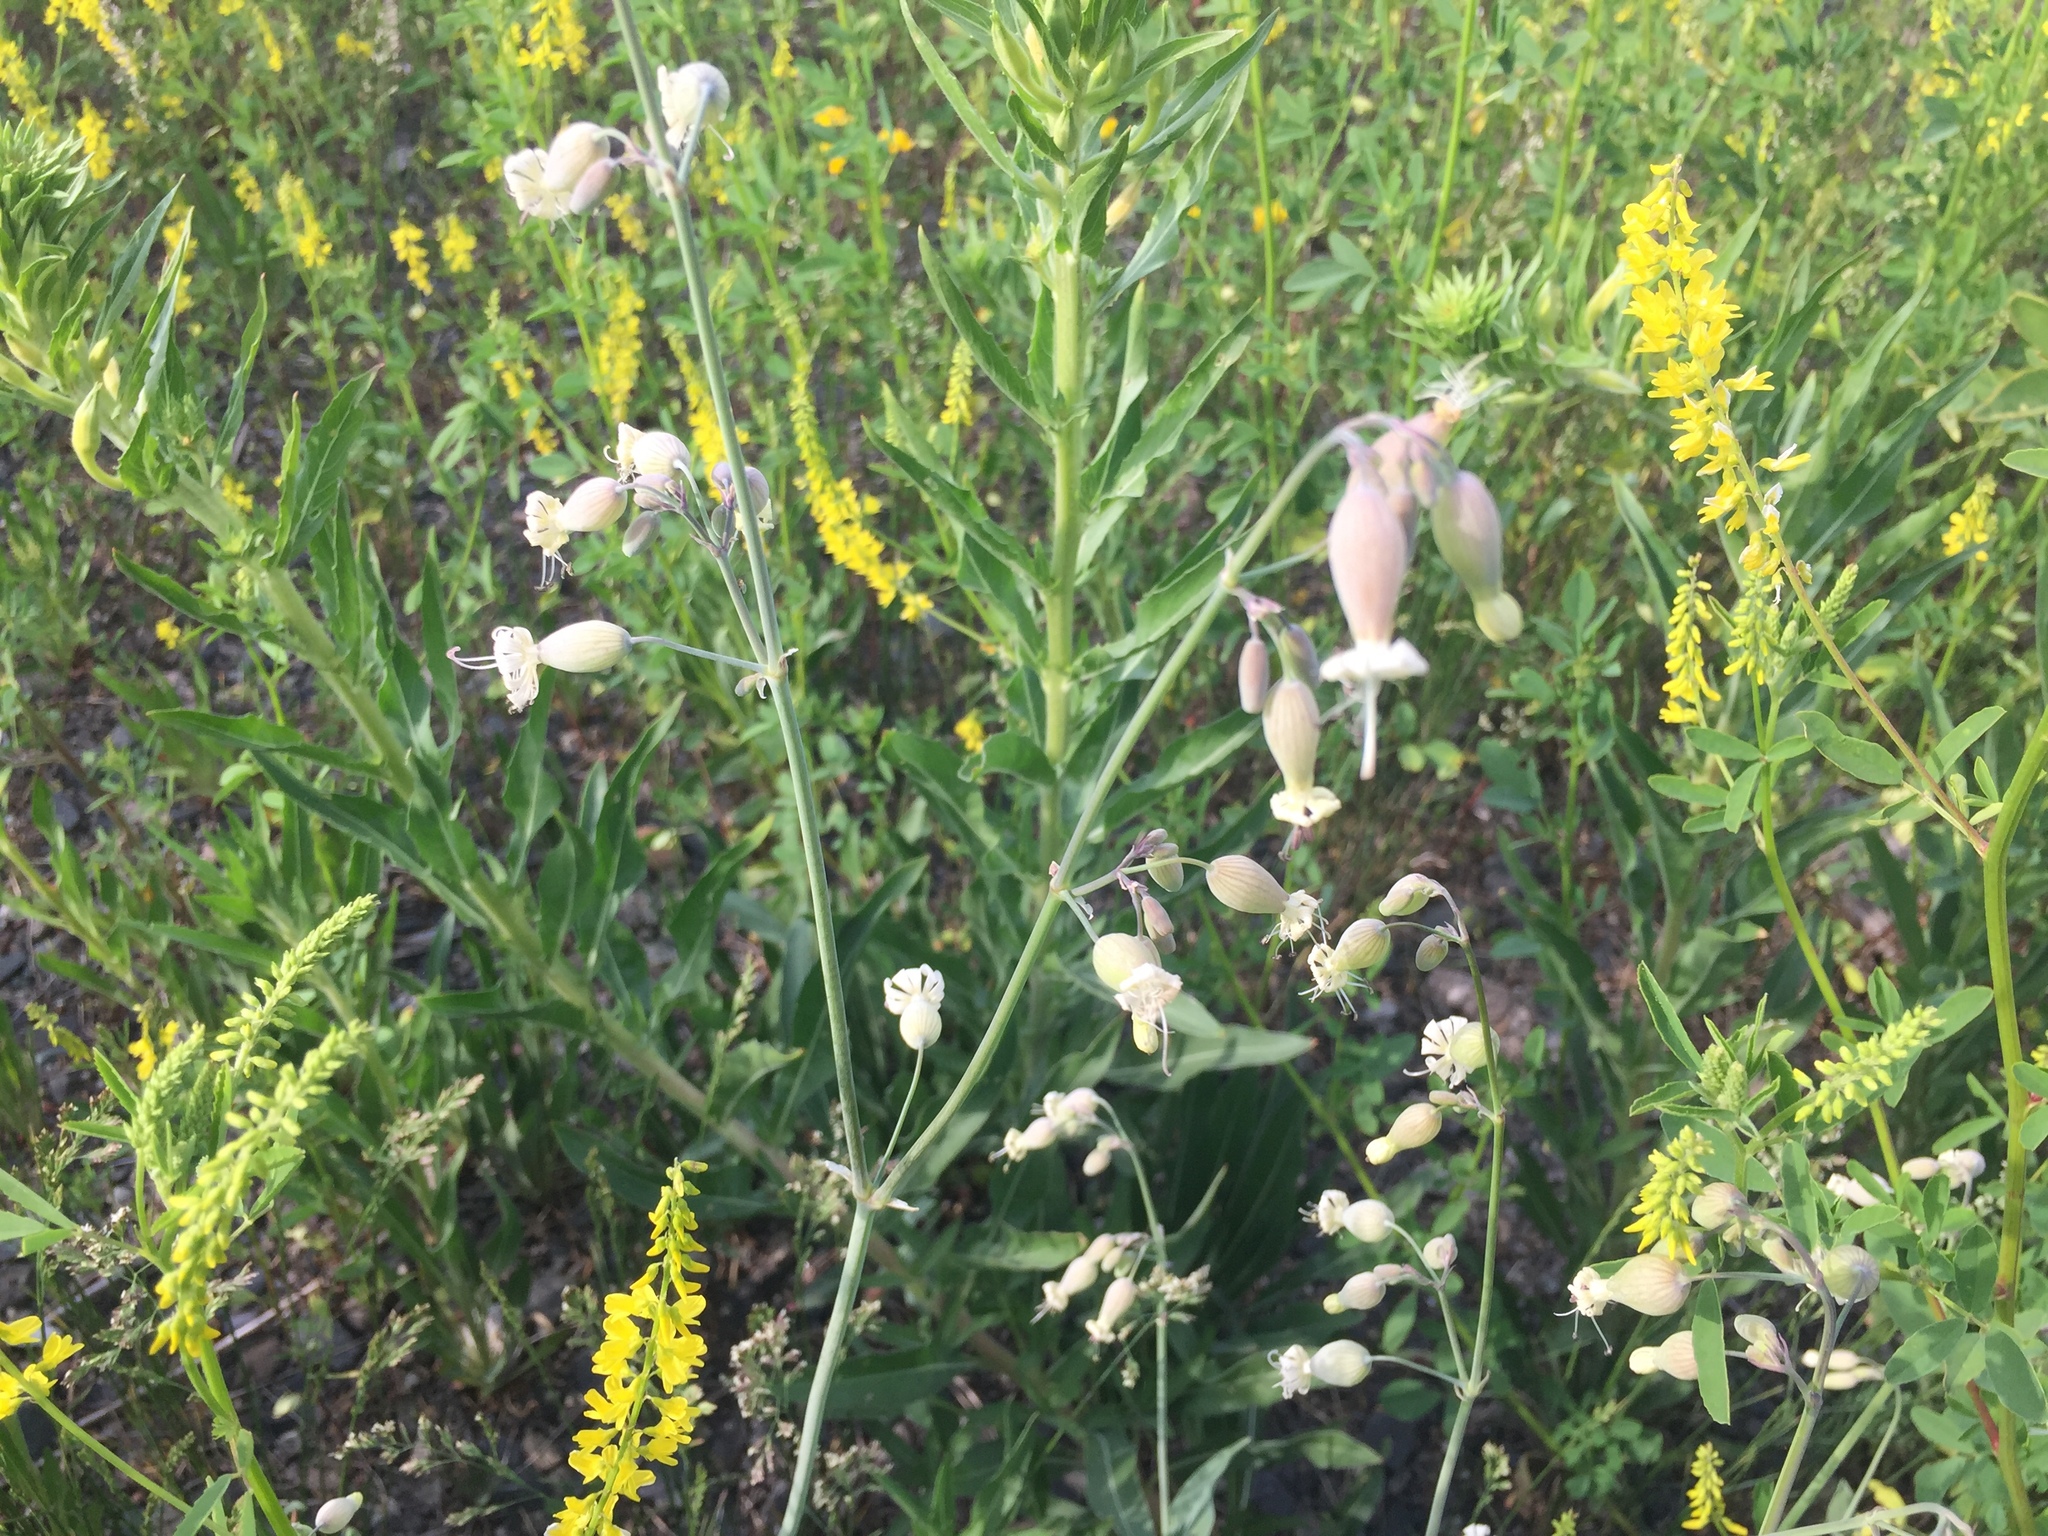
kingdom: Plantae
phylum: Tracheophyta
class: Magnoliopsida
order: Caryophyllales
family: Caryophyllaceae
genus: Silene
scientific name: Silene vulgaris
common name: Bladder campion
